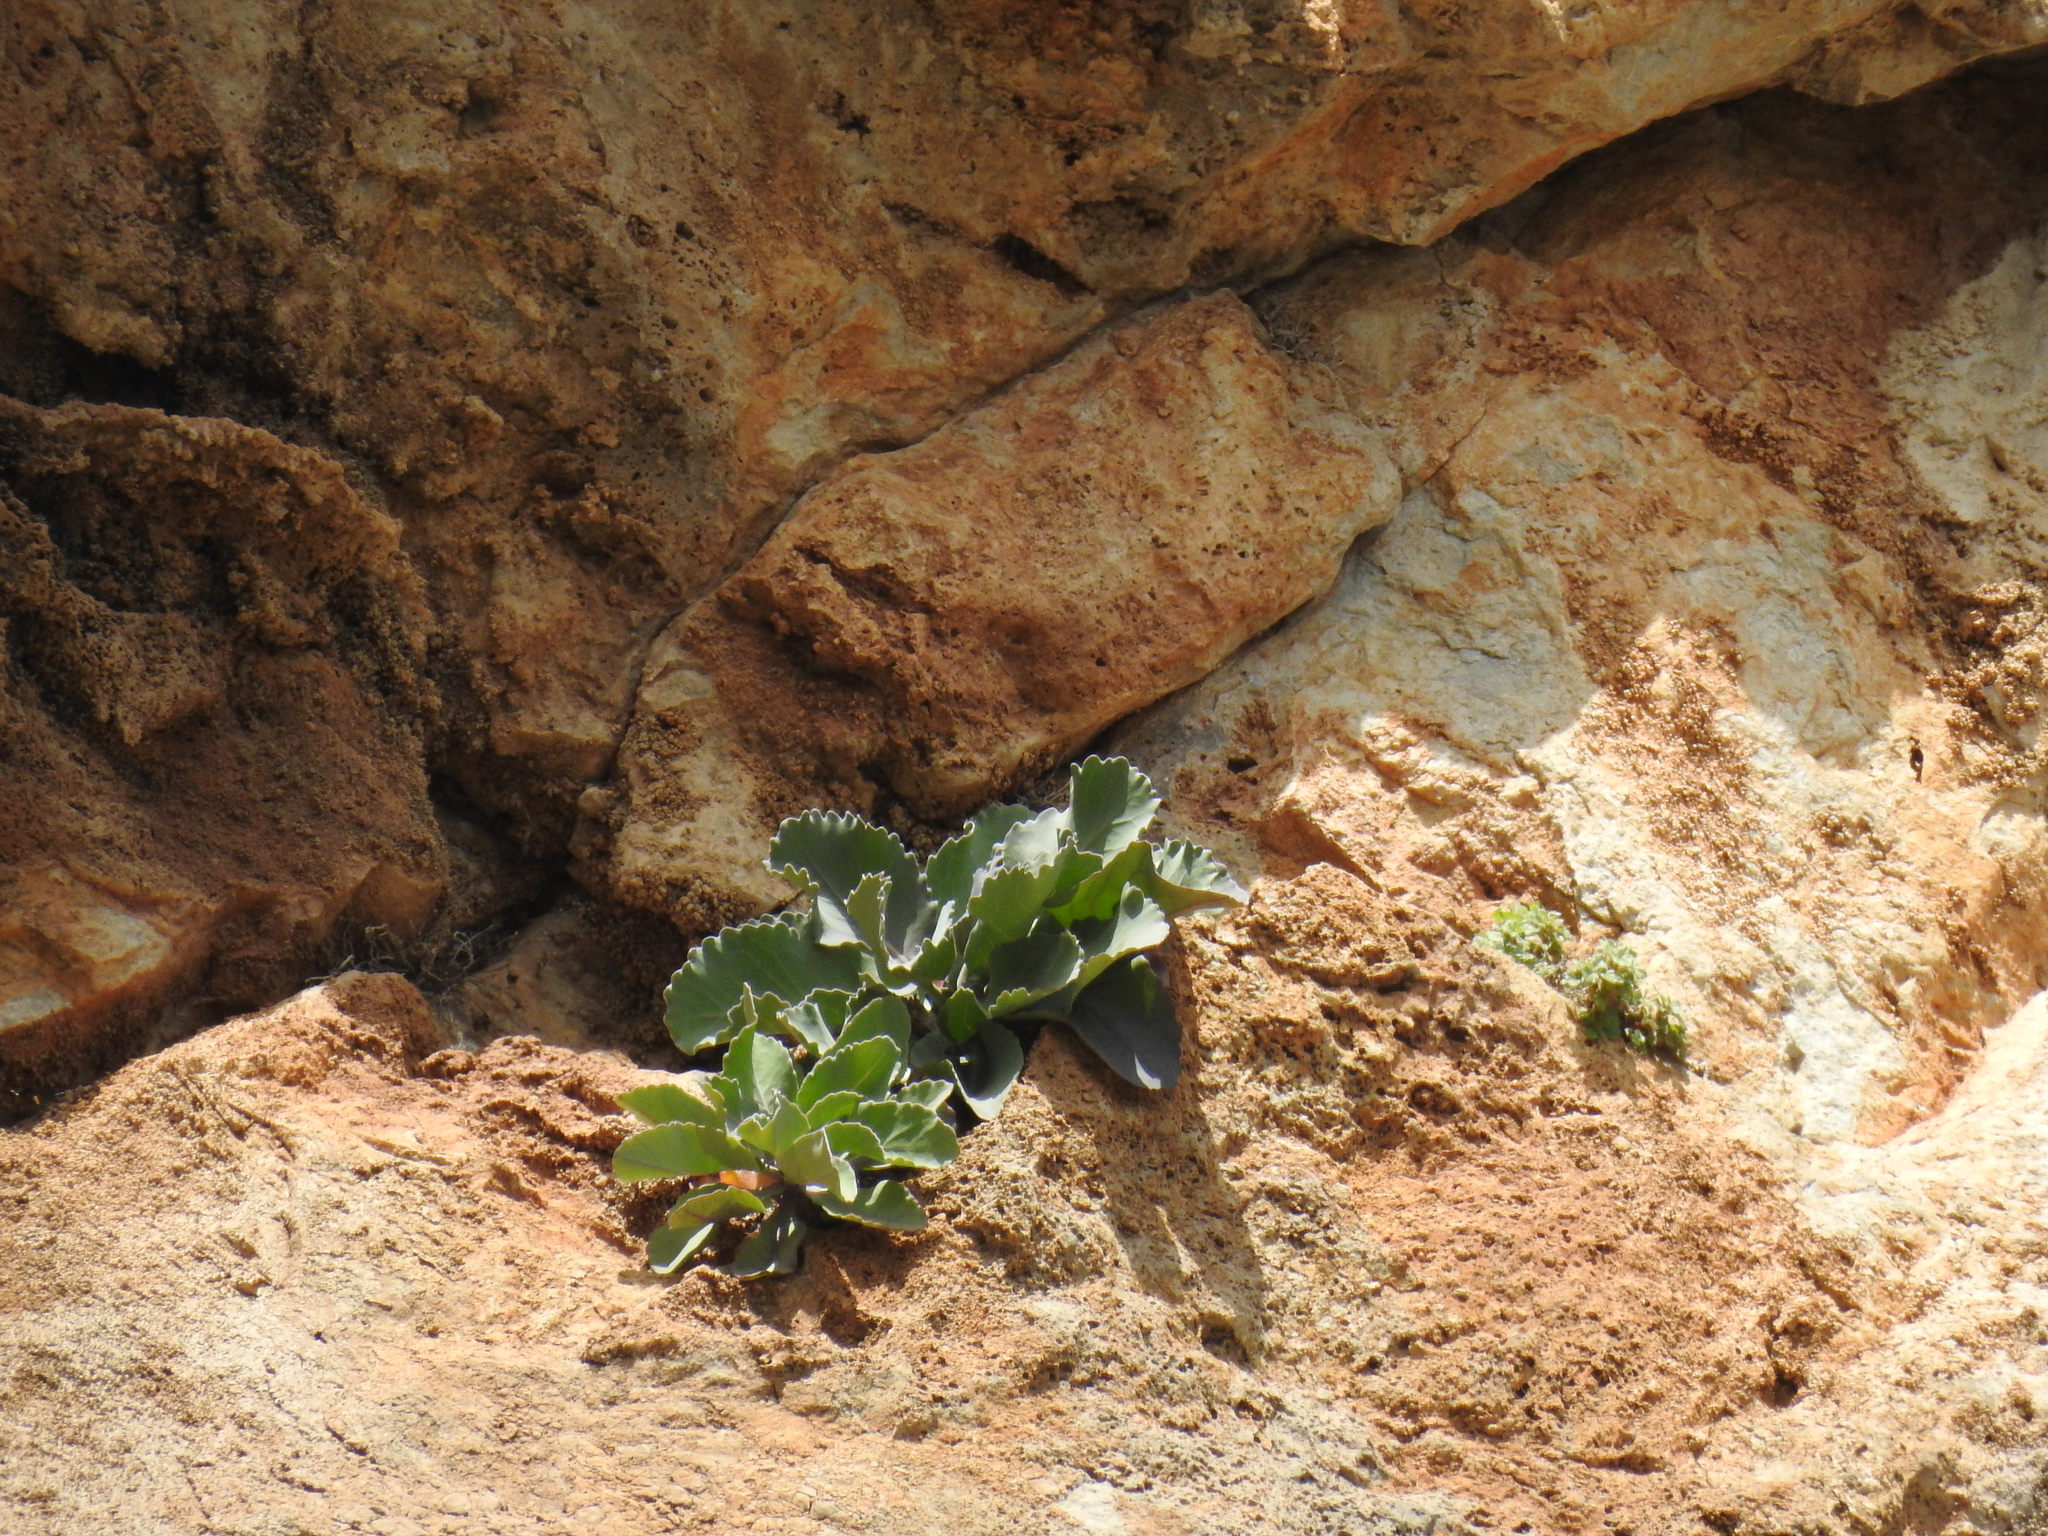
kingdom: Plantae
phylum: Tracheophyta
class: Magnoliopsida
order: Brassicales
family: Brassicaceae
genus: Brassica
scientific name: Brassica cretica
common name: Mustard
